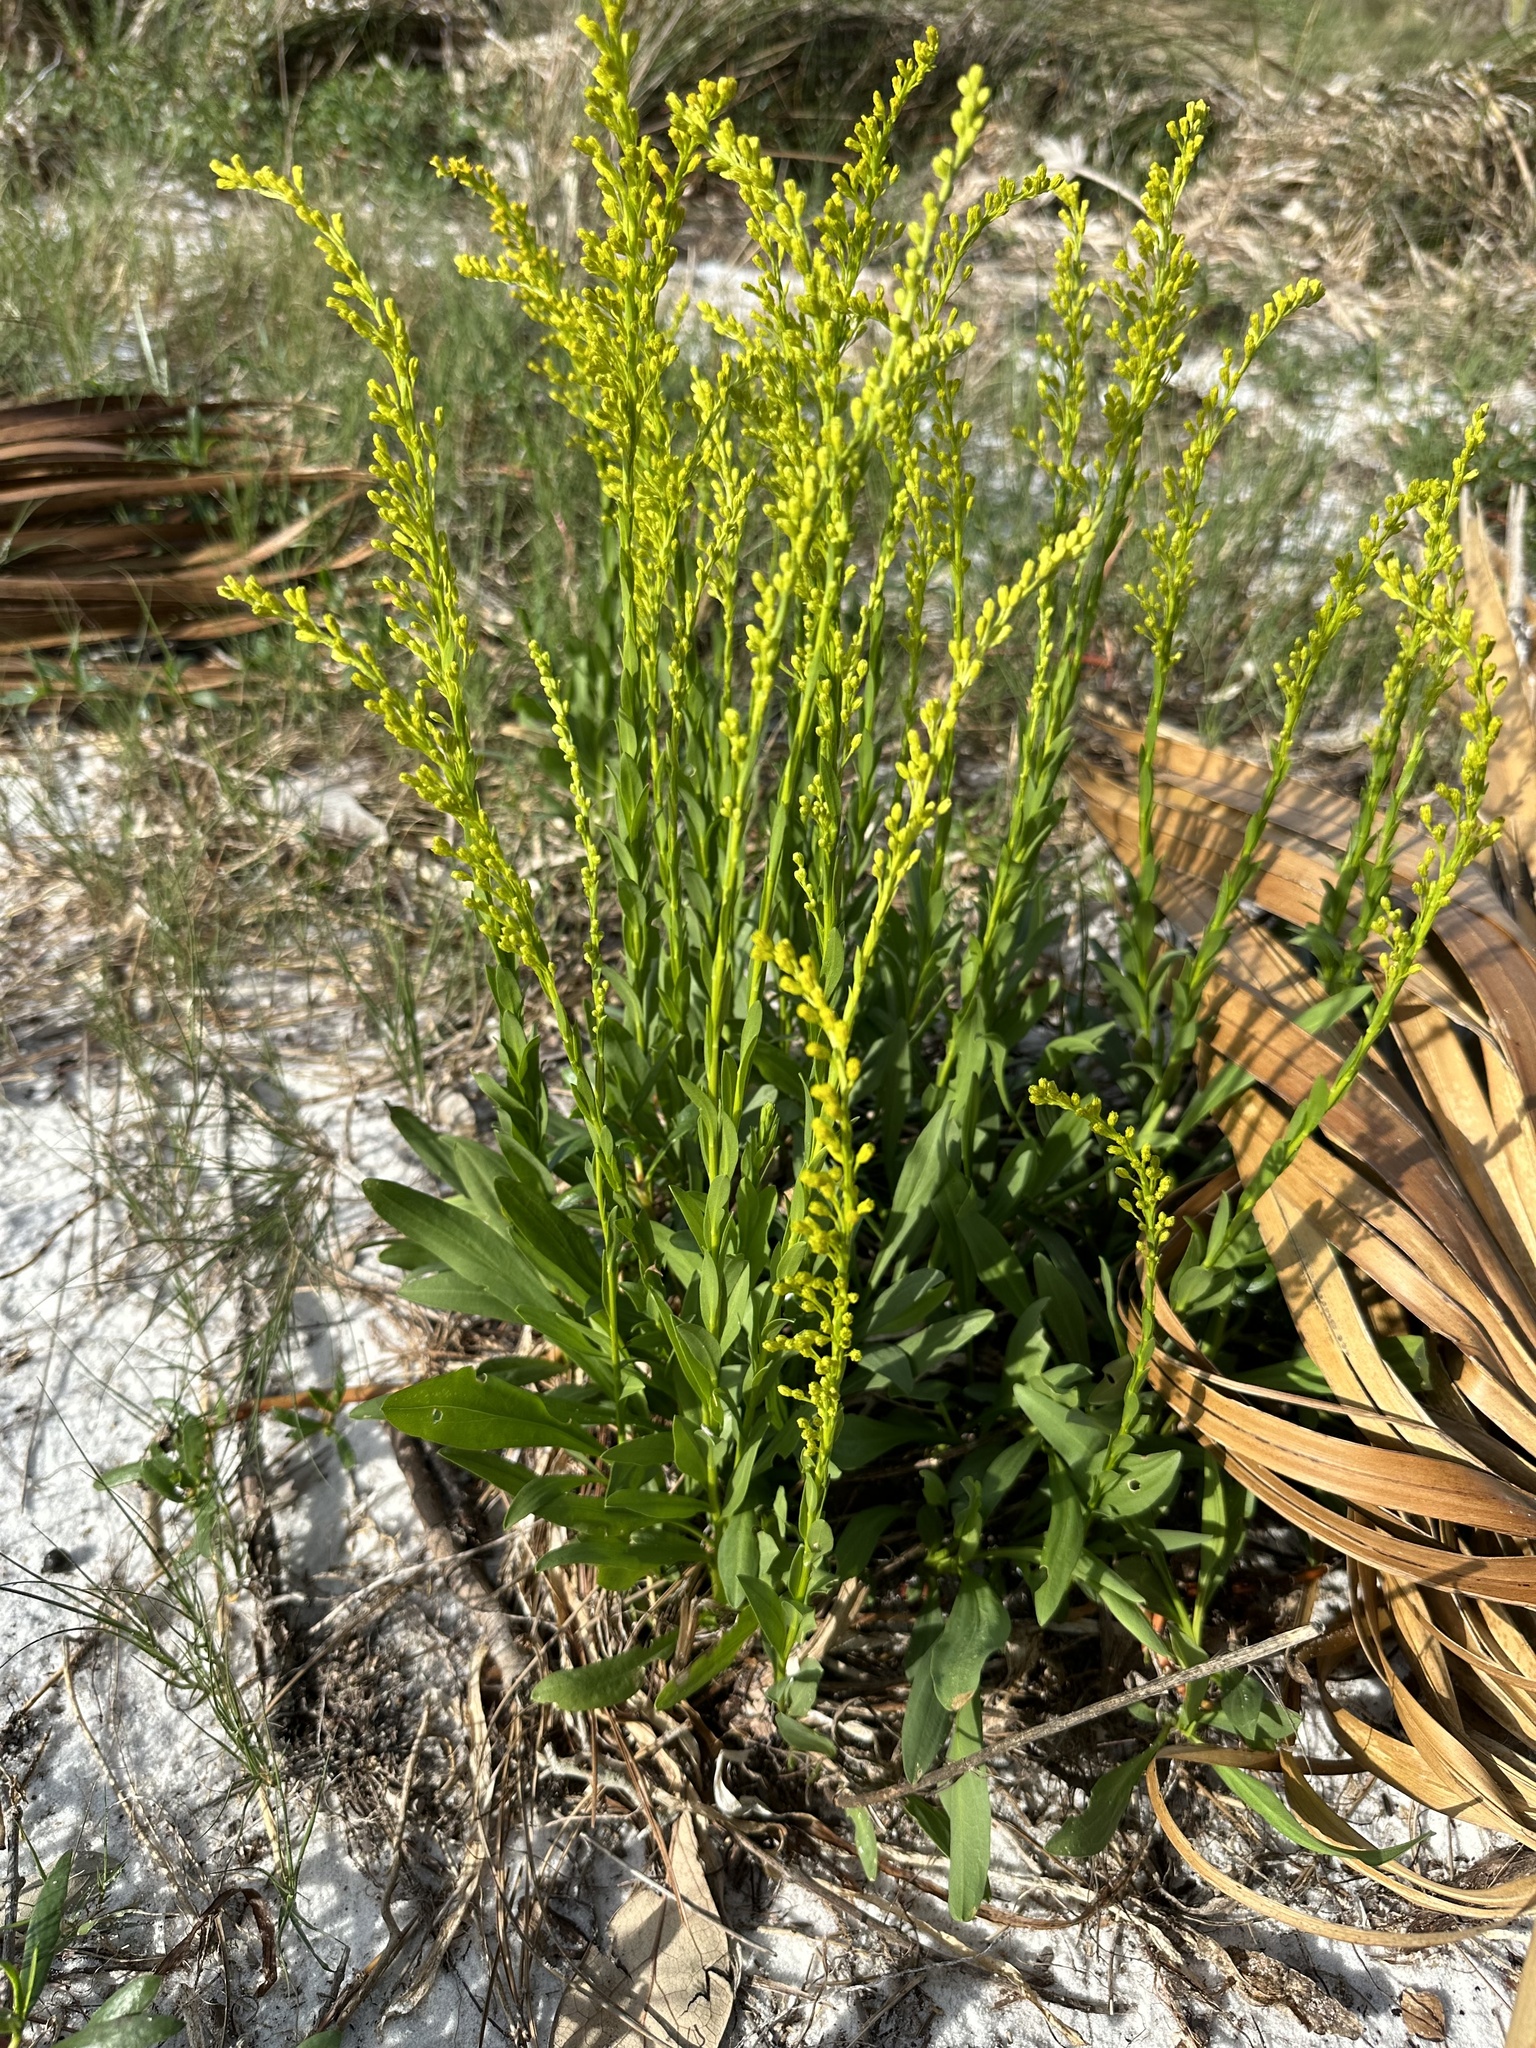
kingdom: Plantae
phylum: Tracheophyta
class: Magnoliopsida
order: Asterales
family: Asteraceae
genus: Solidago
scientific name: Solidago mexicana
